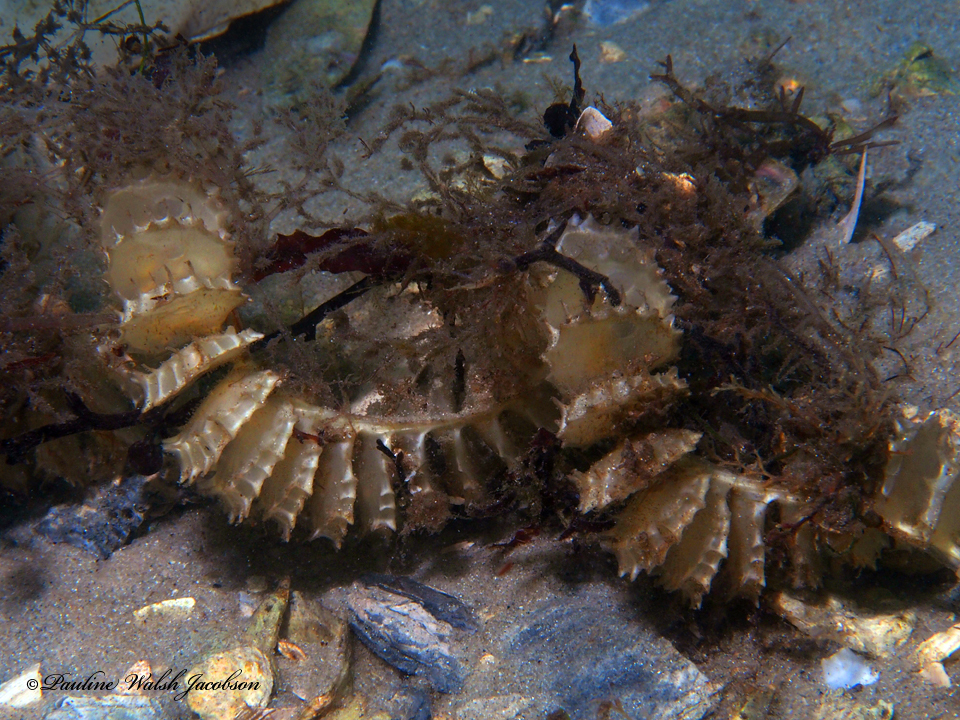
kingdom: Animalia
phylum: Mollusca
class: Gastropoda
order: Neogastropoda
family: Busyconidae
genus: Fulguropsis
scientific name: Fulguropsis pyruloides
